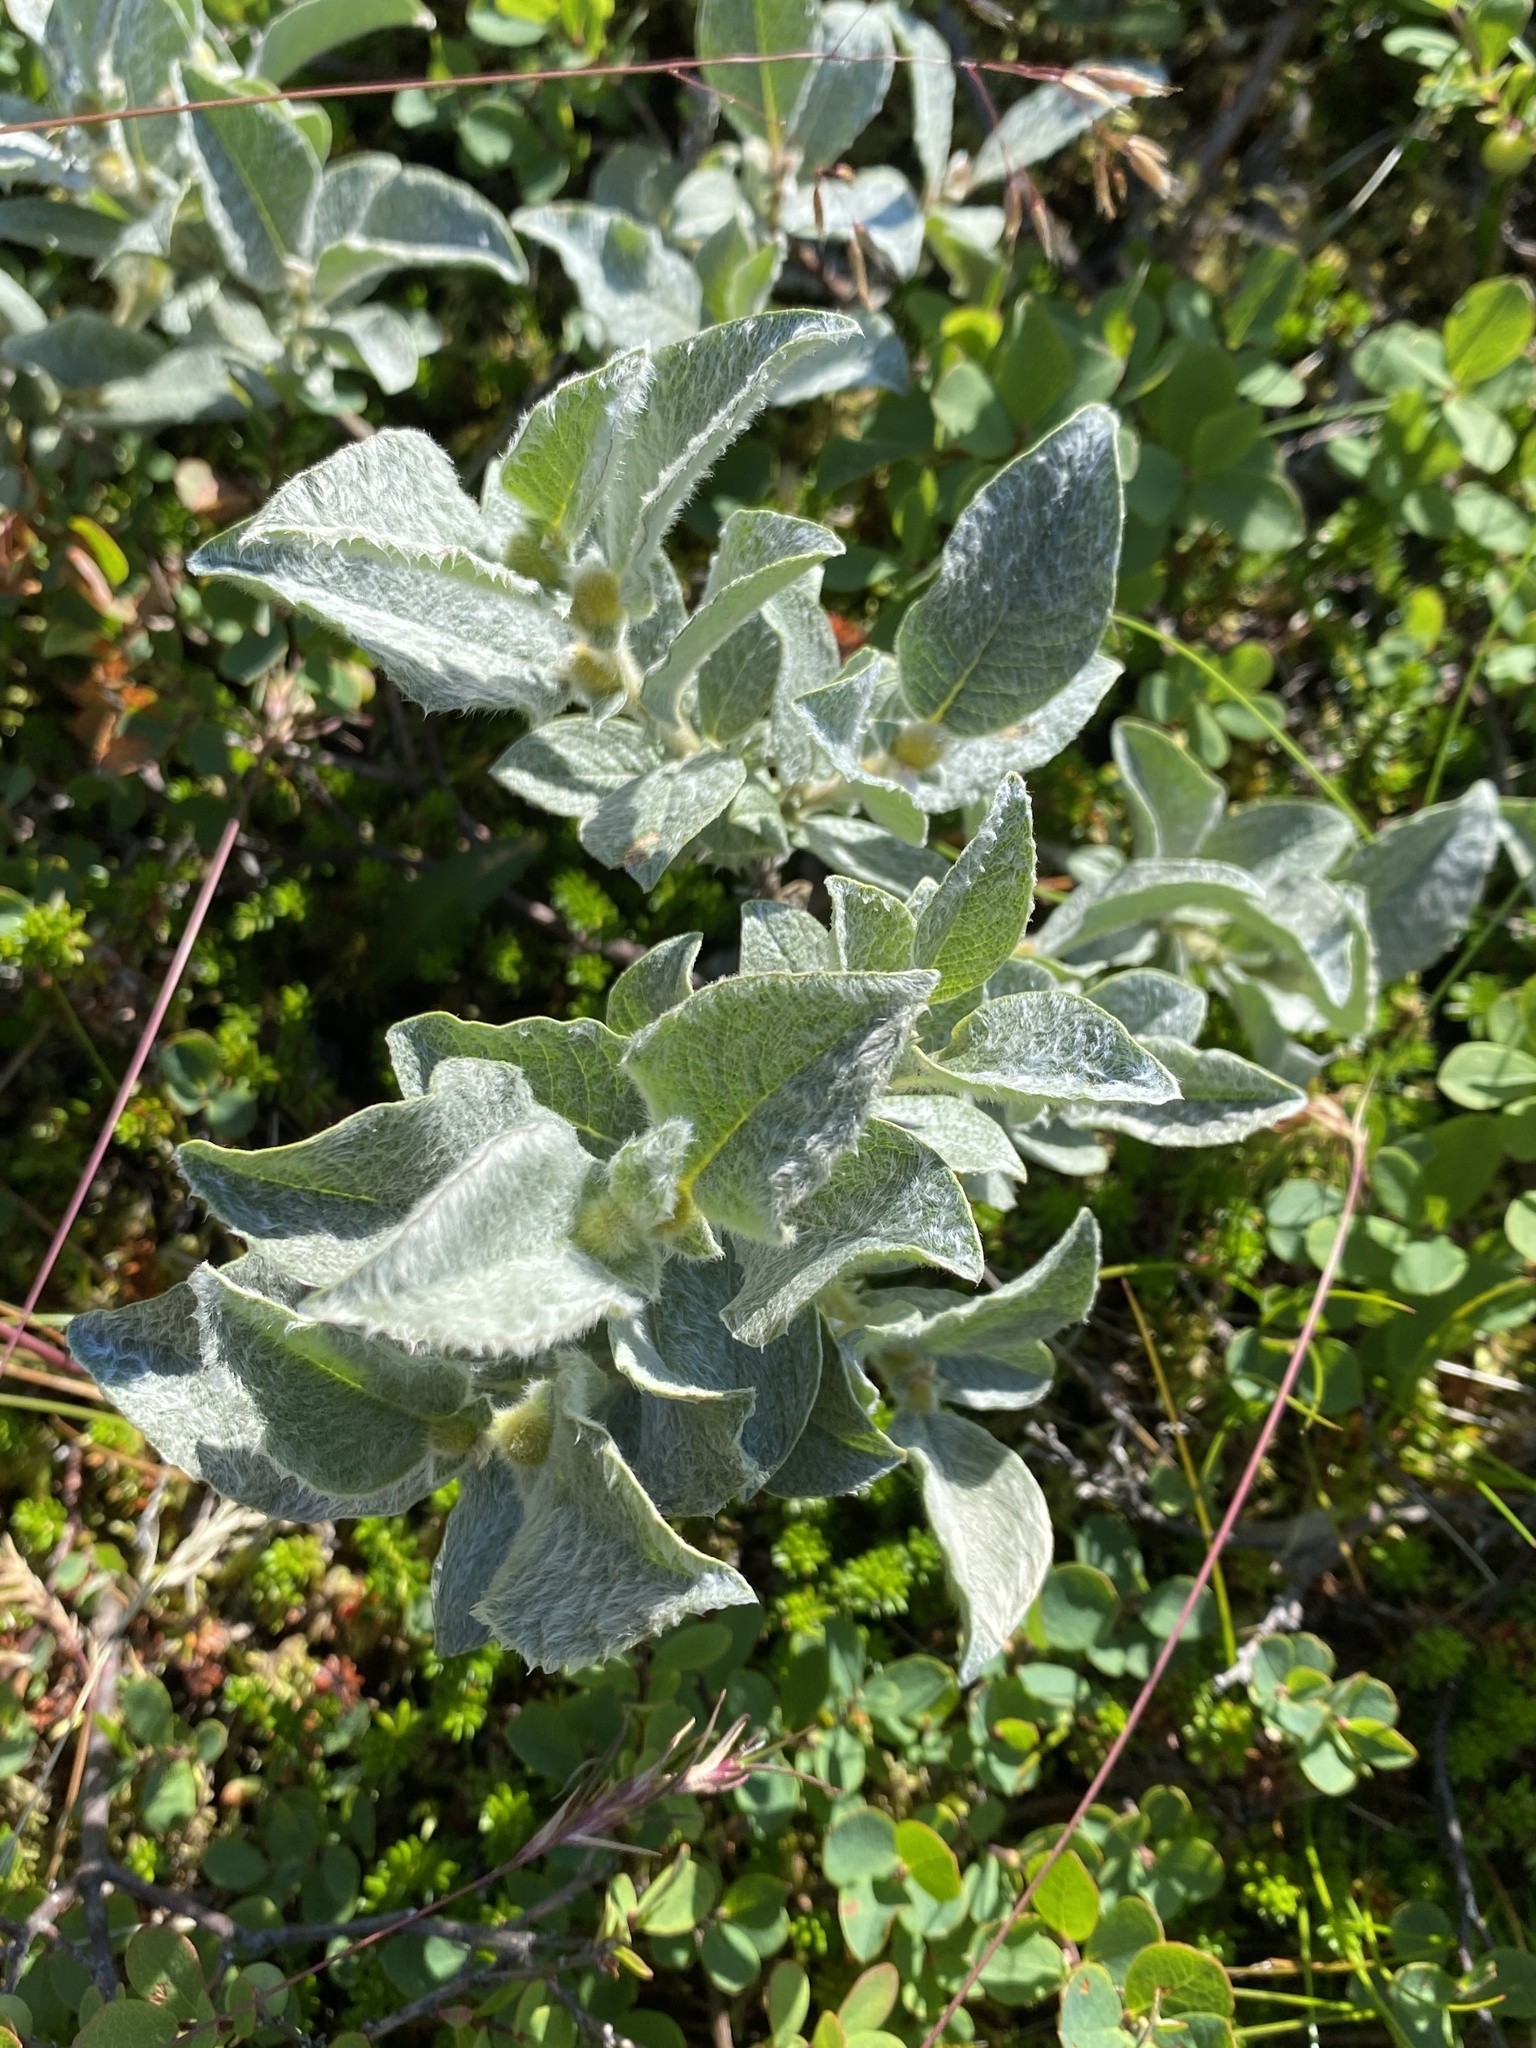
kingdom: Plantae
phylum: Tracheophyta
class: Magnoliopsida
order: Malpighiales
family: Salicaceae
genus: Salix
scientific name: Salix lanata
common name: Woolly willow
